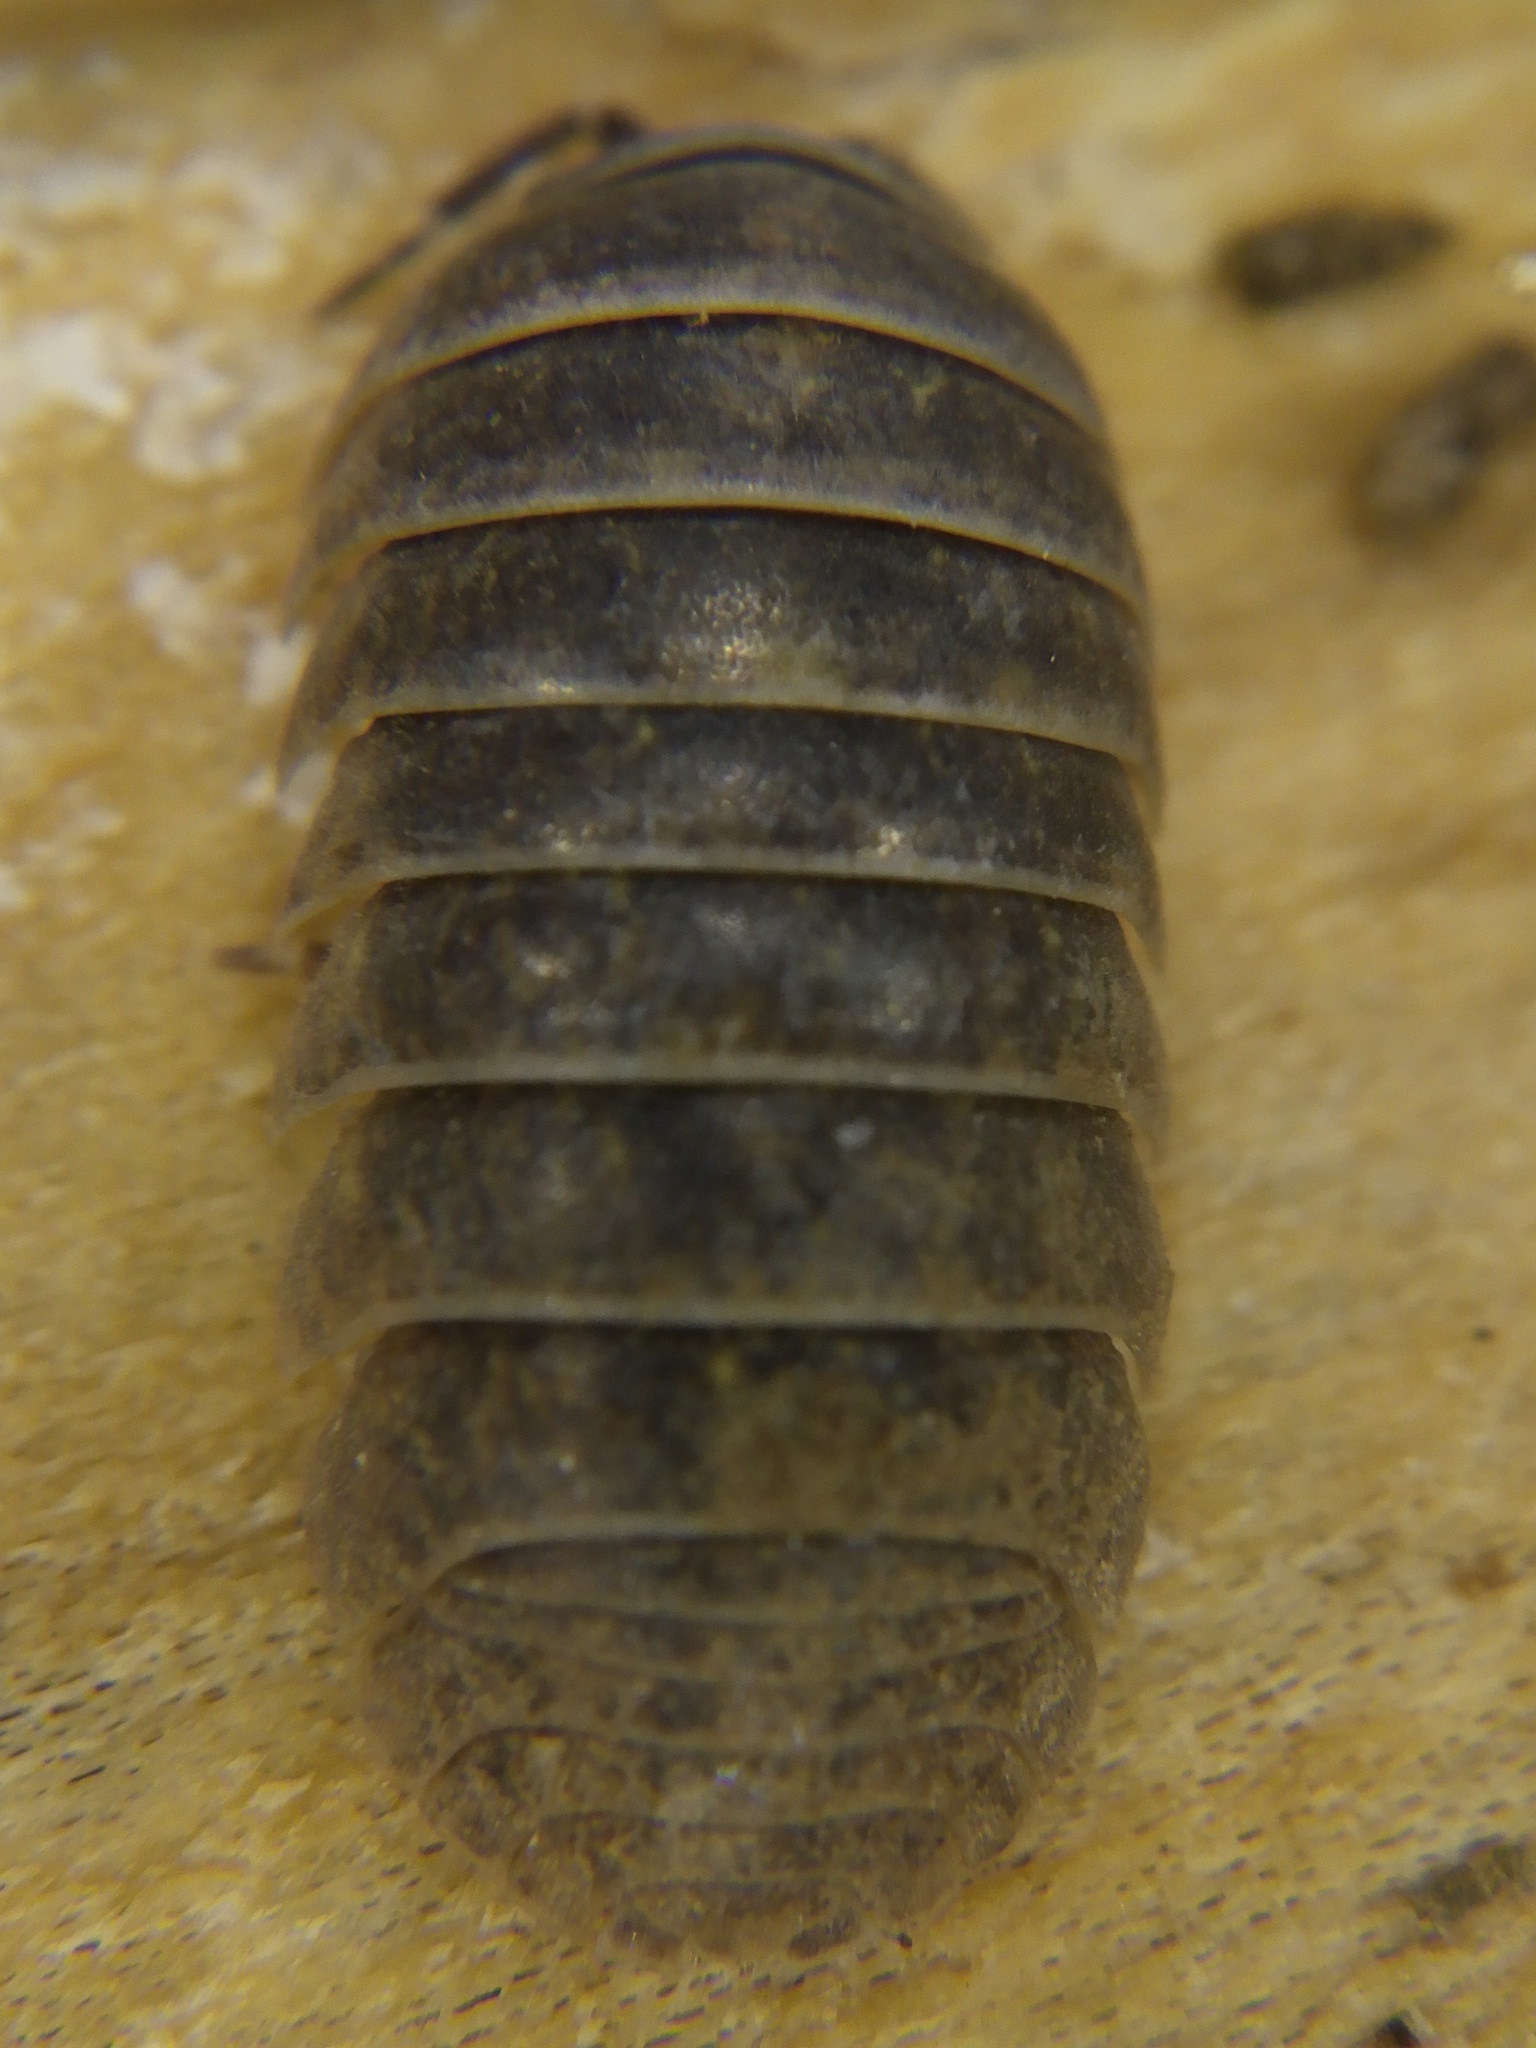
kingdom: Animalia
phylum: Arthropoda
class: Malacostraca
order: Isopoda
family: Armadillidiidae
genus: Armadillidium
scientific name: Armadillidium vulgare
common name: Common pill woodlouse
